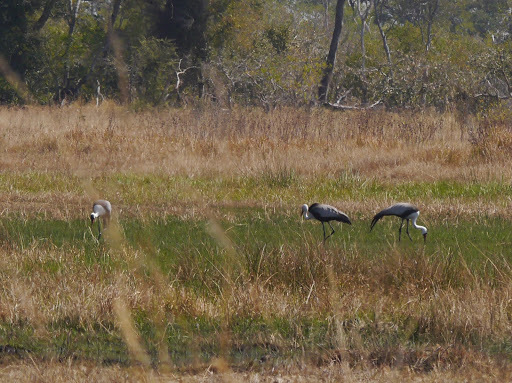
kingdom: Animalia
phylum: Chordata
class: Aves
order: Gruiformes
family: Gruidae
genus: Bugeranus
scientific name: Bugeranus carunculatus
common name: Wattled crane
